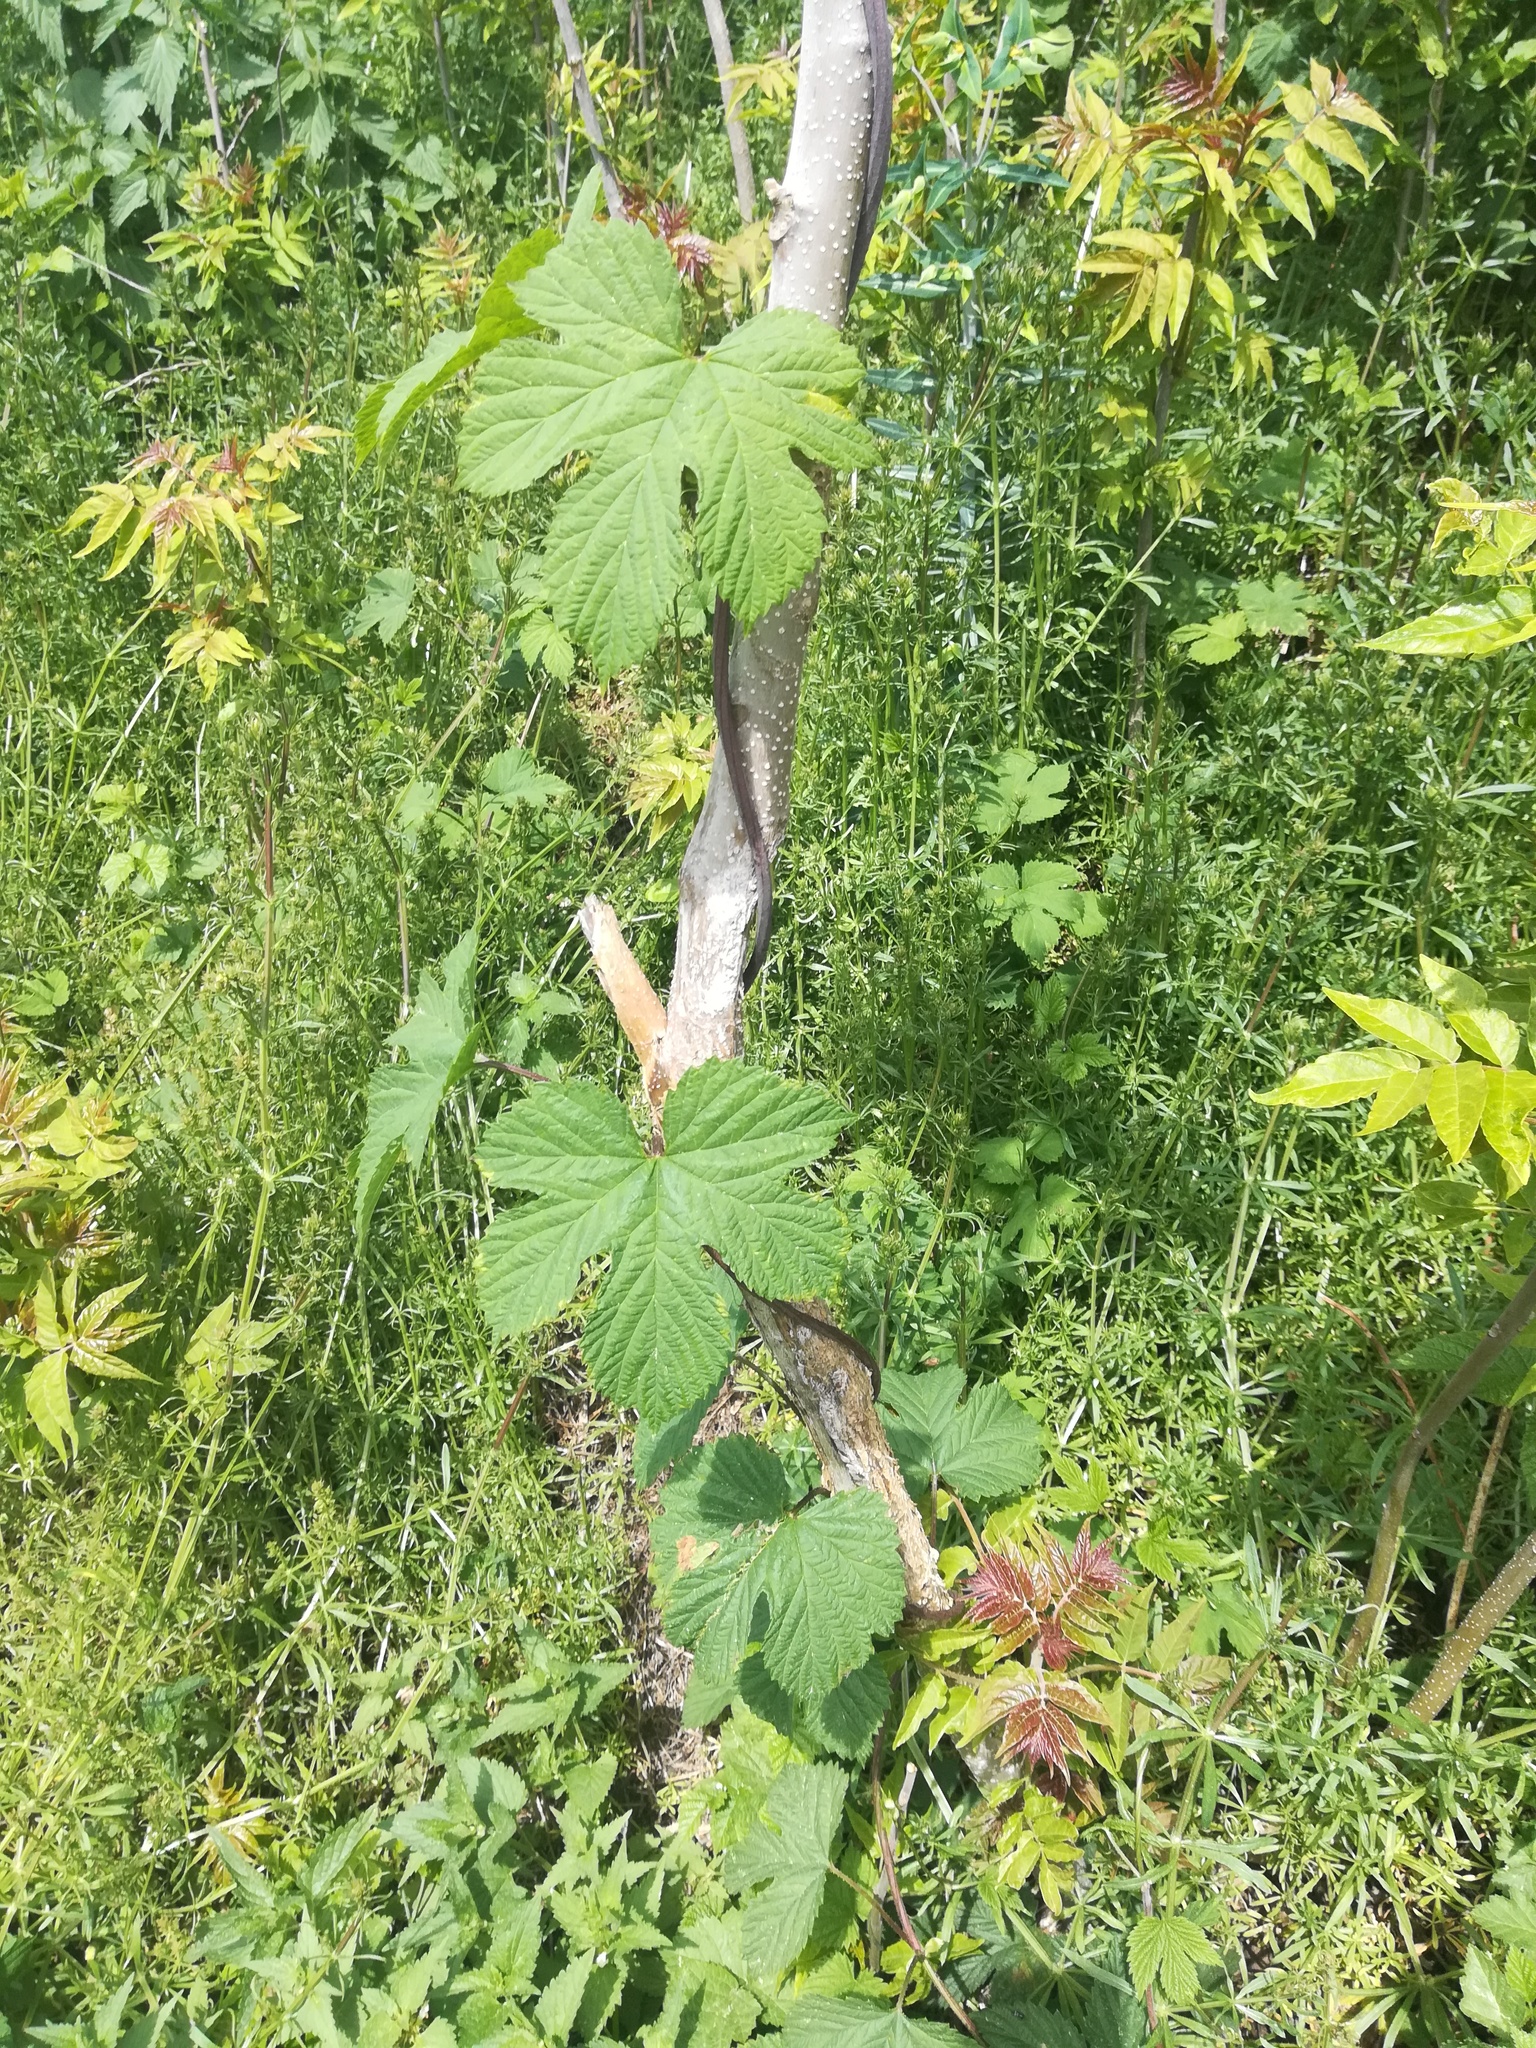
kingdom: Plantae
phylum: Tracheophyta
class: Magnoliopsida
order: Rosales
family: Cannabaceae
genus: Humulus
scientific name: Humulus lupulus
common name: Hop
